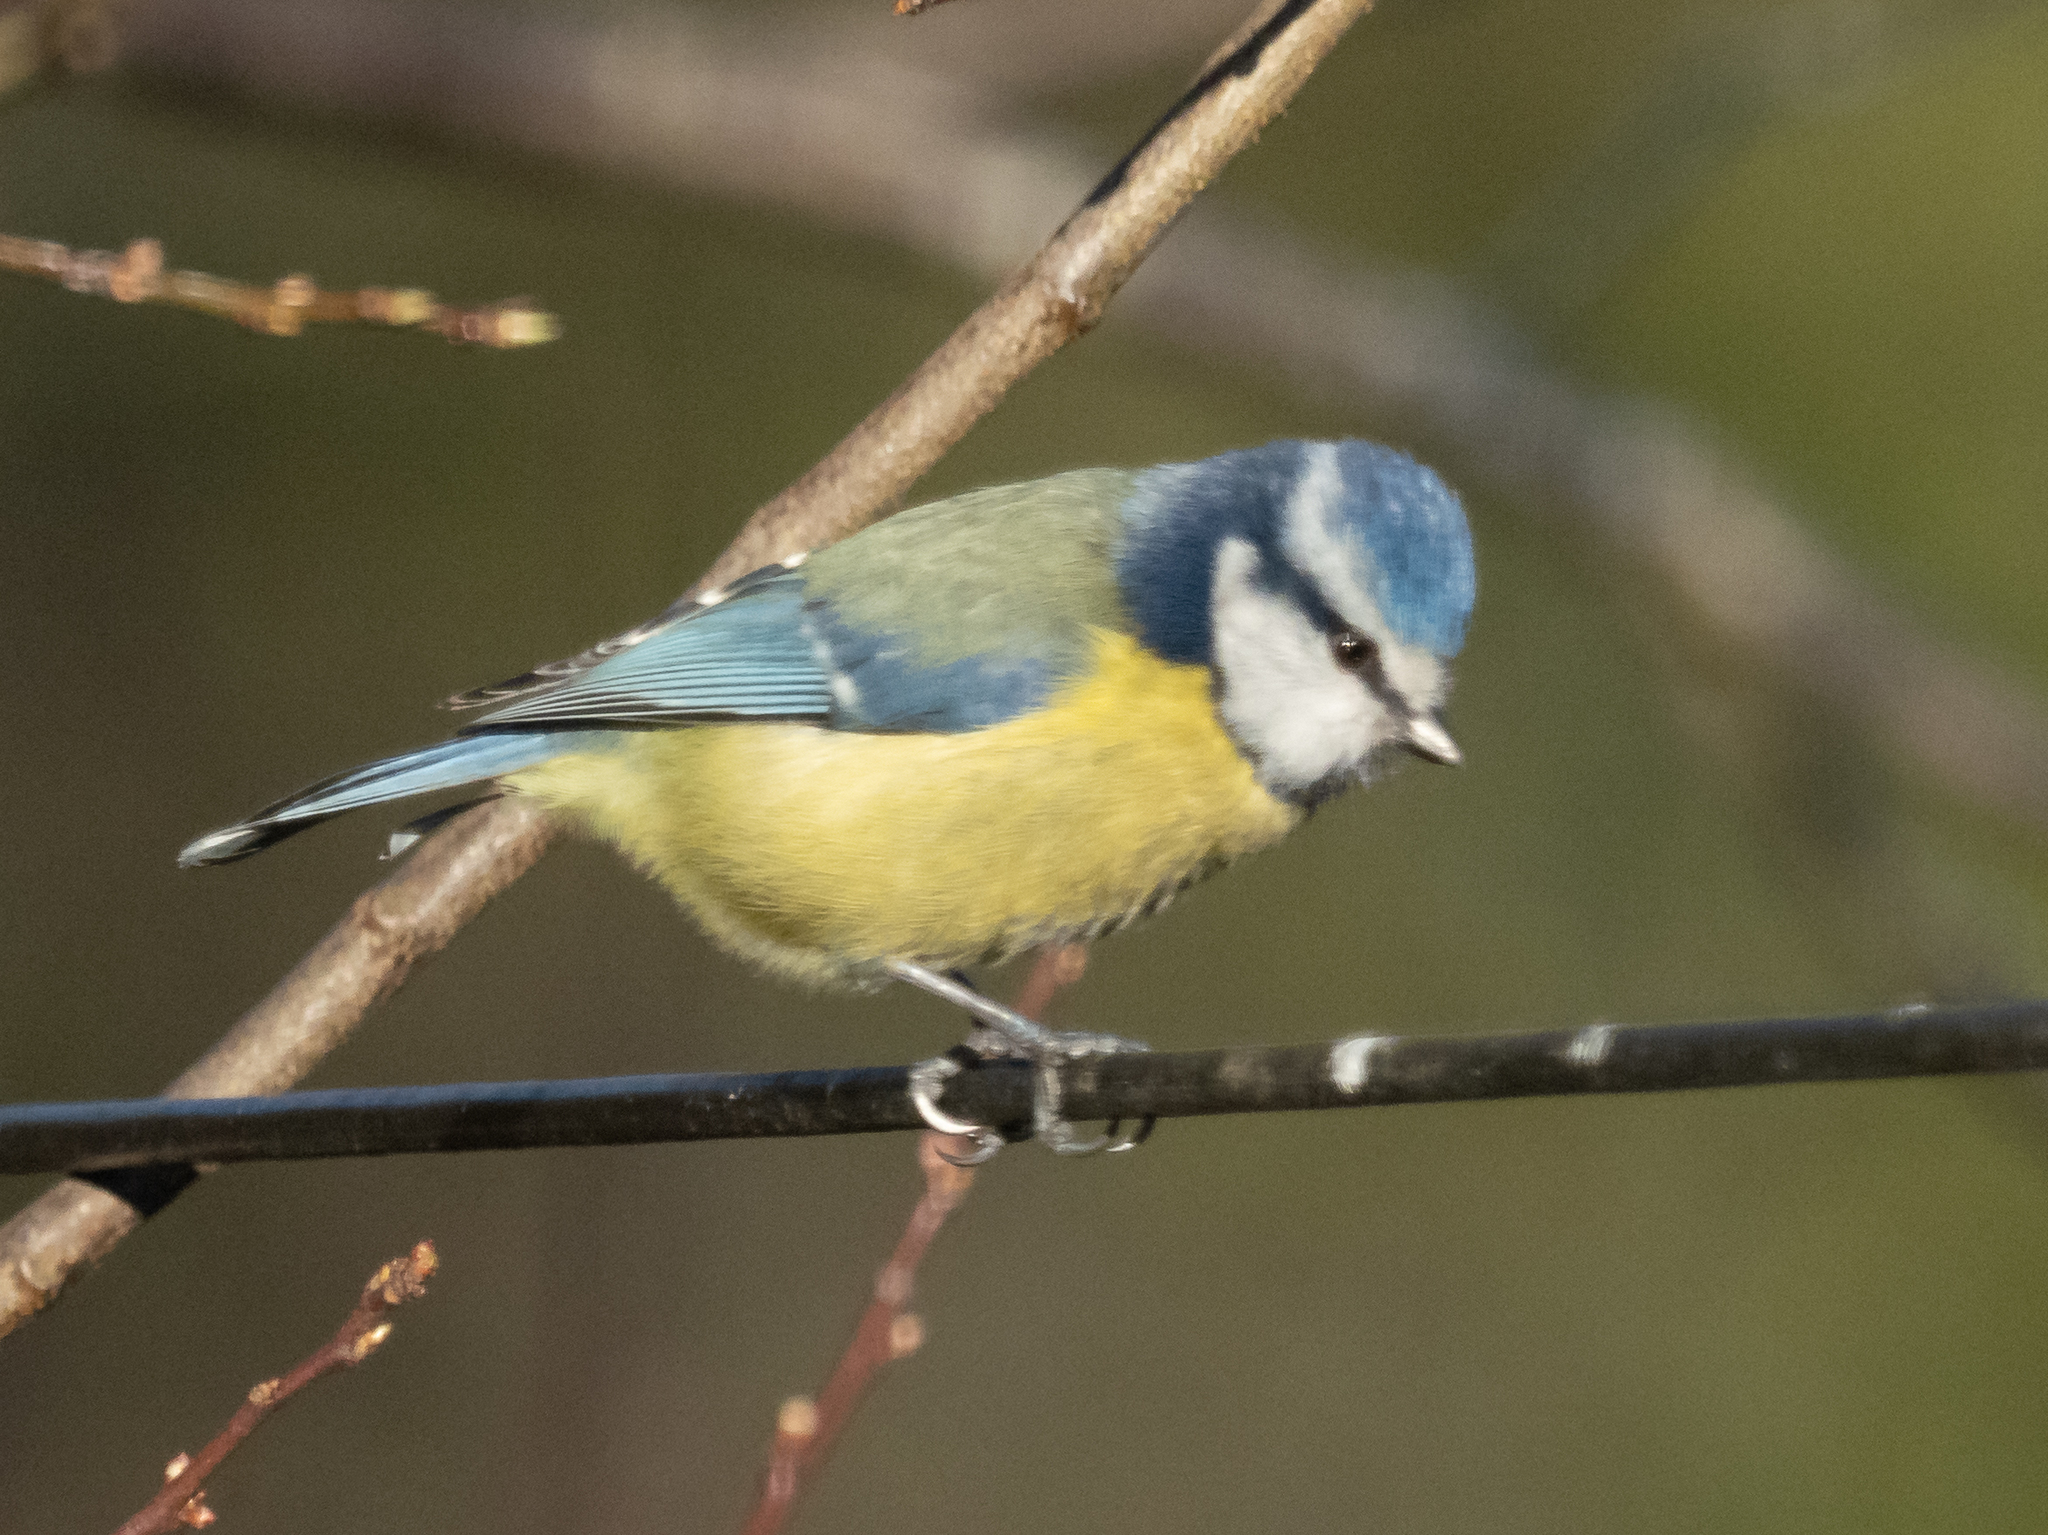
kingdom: Animalia
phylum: Chordata
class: Aves
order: Passeriformes
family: Paridae
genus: Cyanistes
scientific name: Cyanistes caeruleus
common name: Eurasian blue tit
